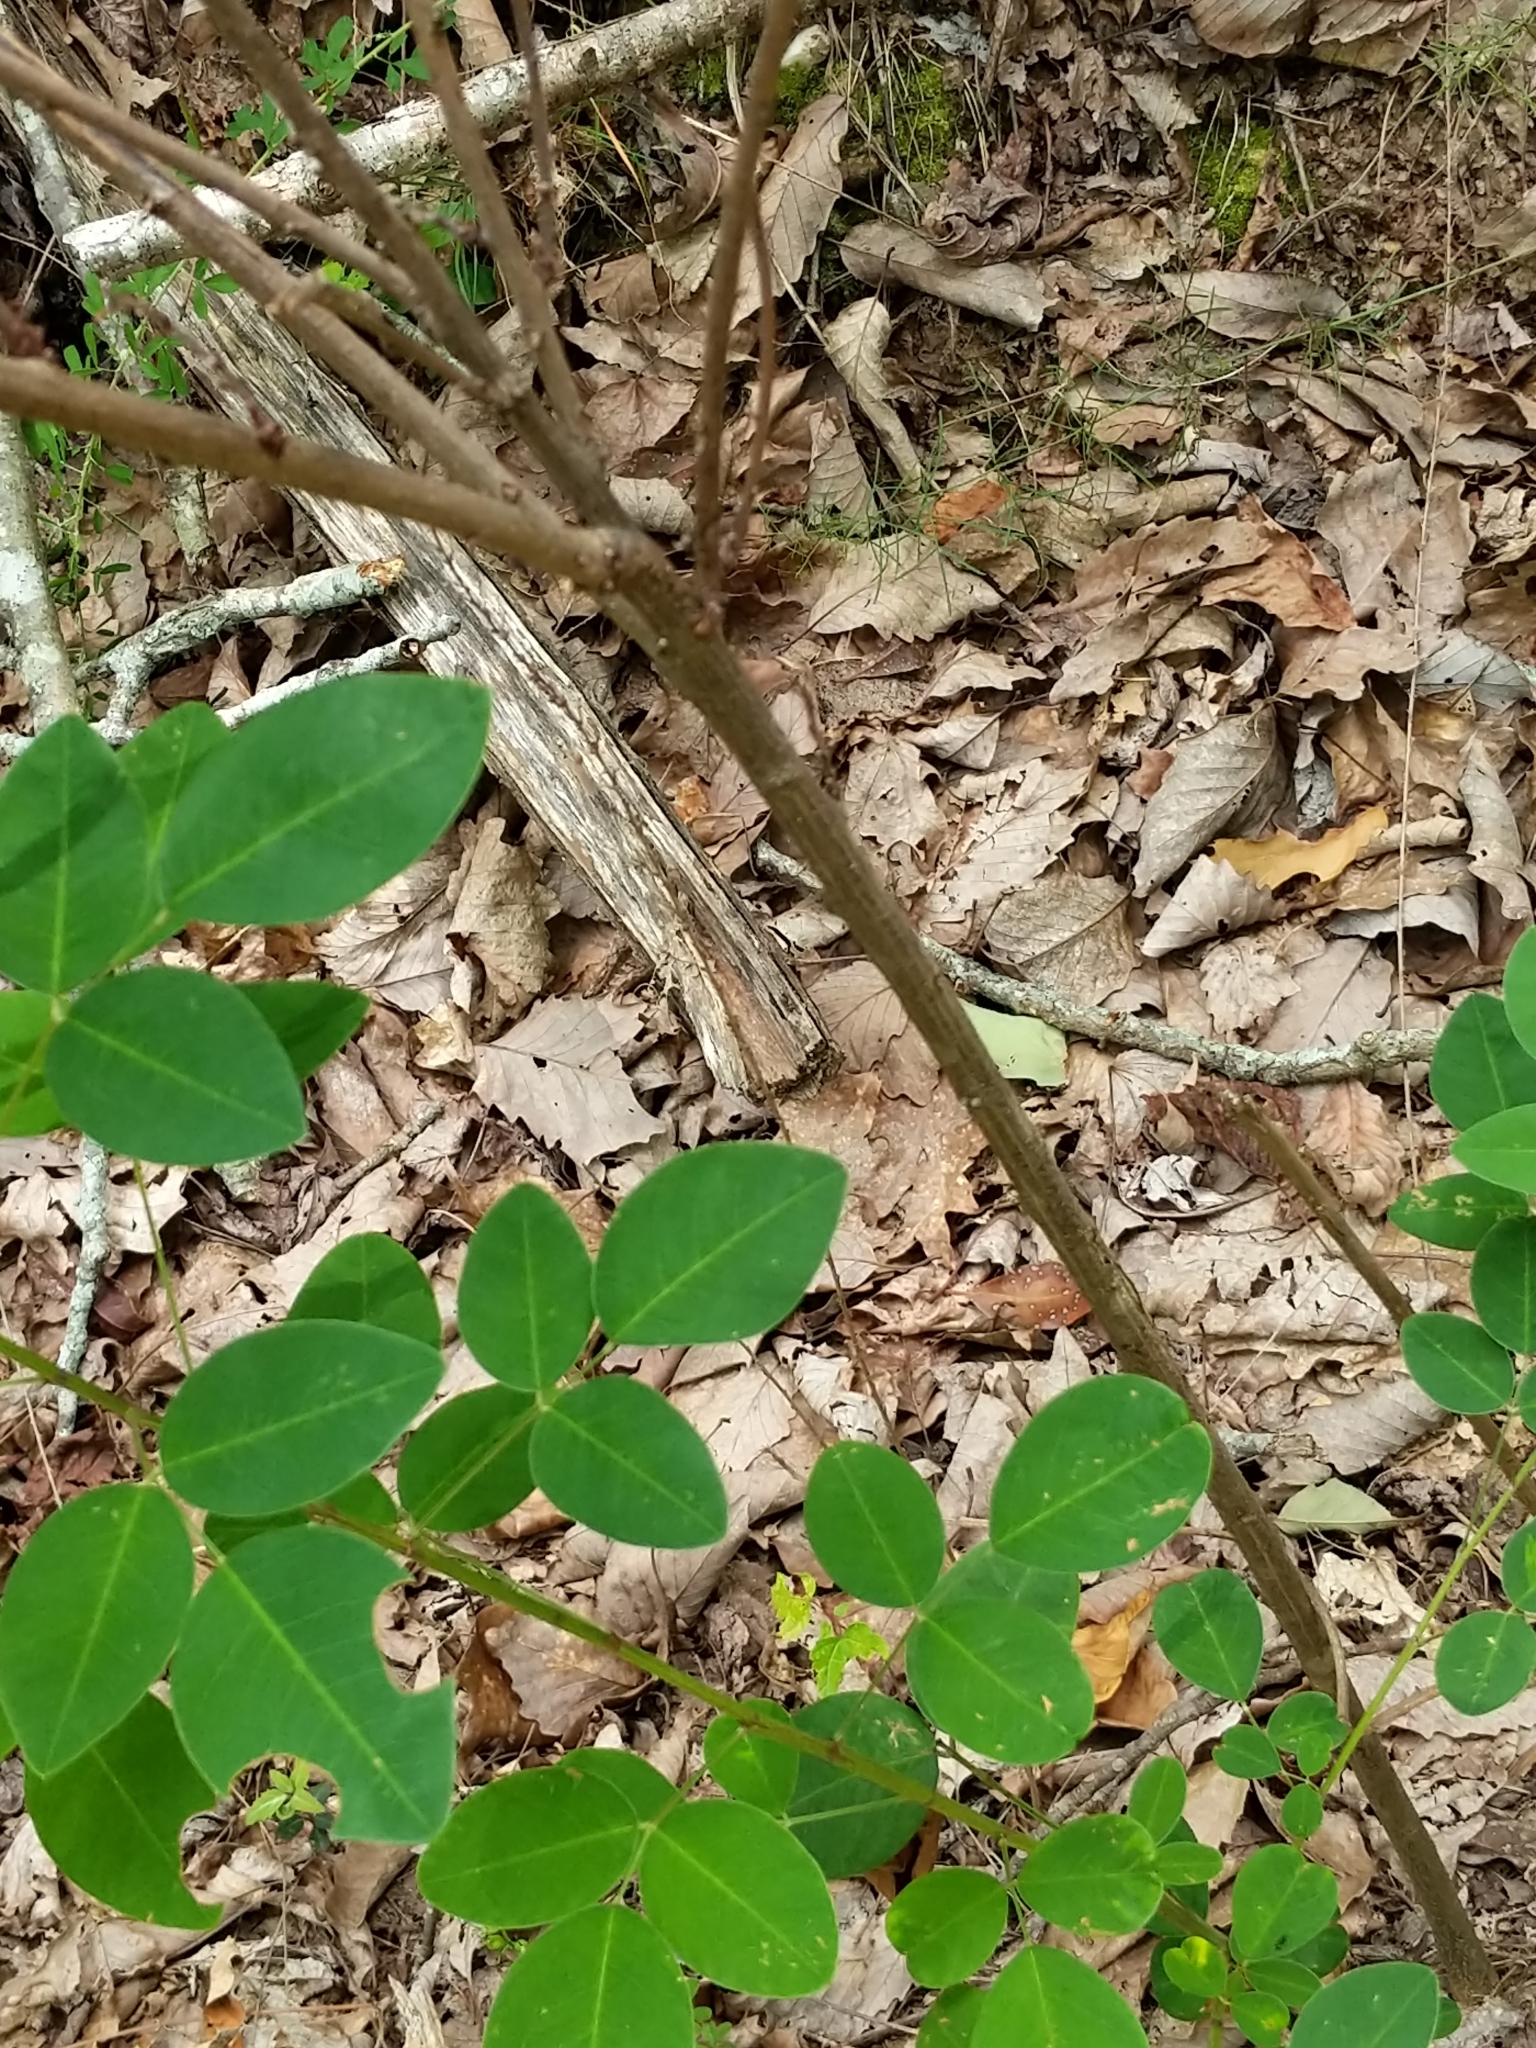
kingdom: Plantae
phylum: Tracheophyta
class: Magnoliopsida
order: Fabales
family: Fabaceae
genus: Lespedeza
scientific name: Lespedeza bicolor
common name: Shrub lespedeza
